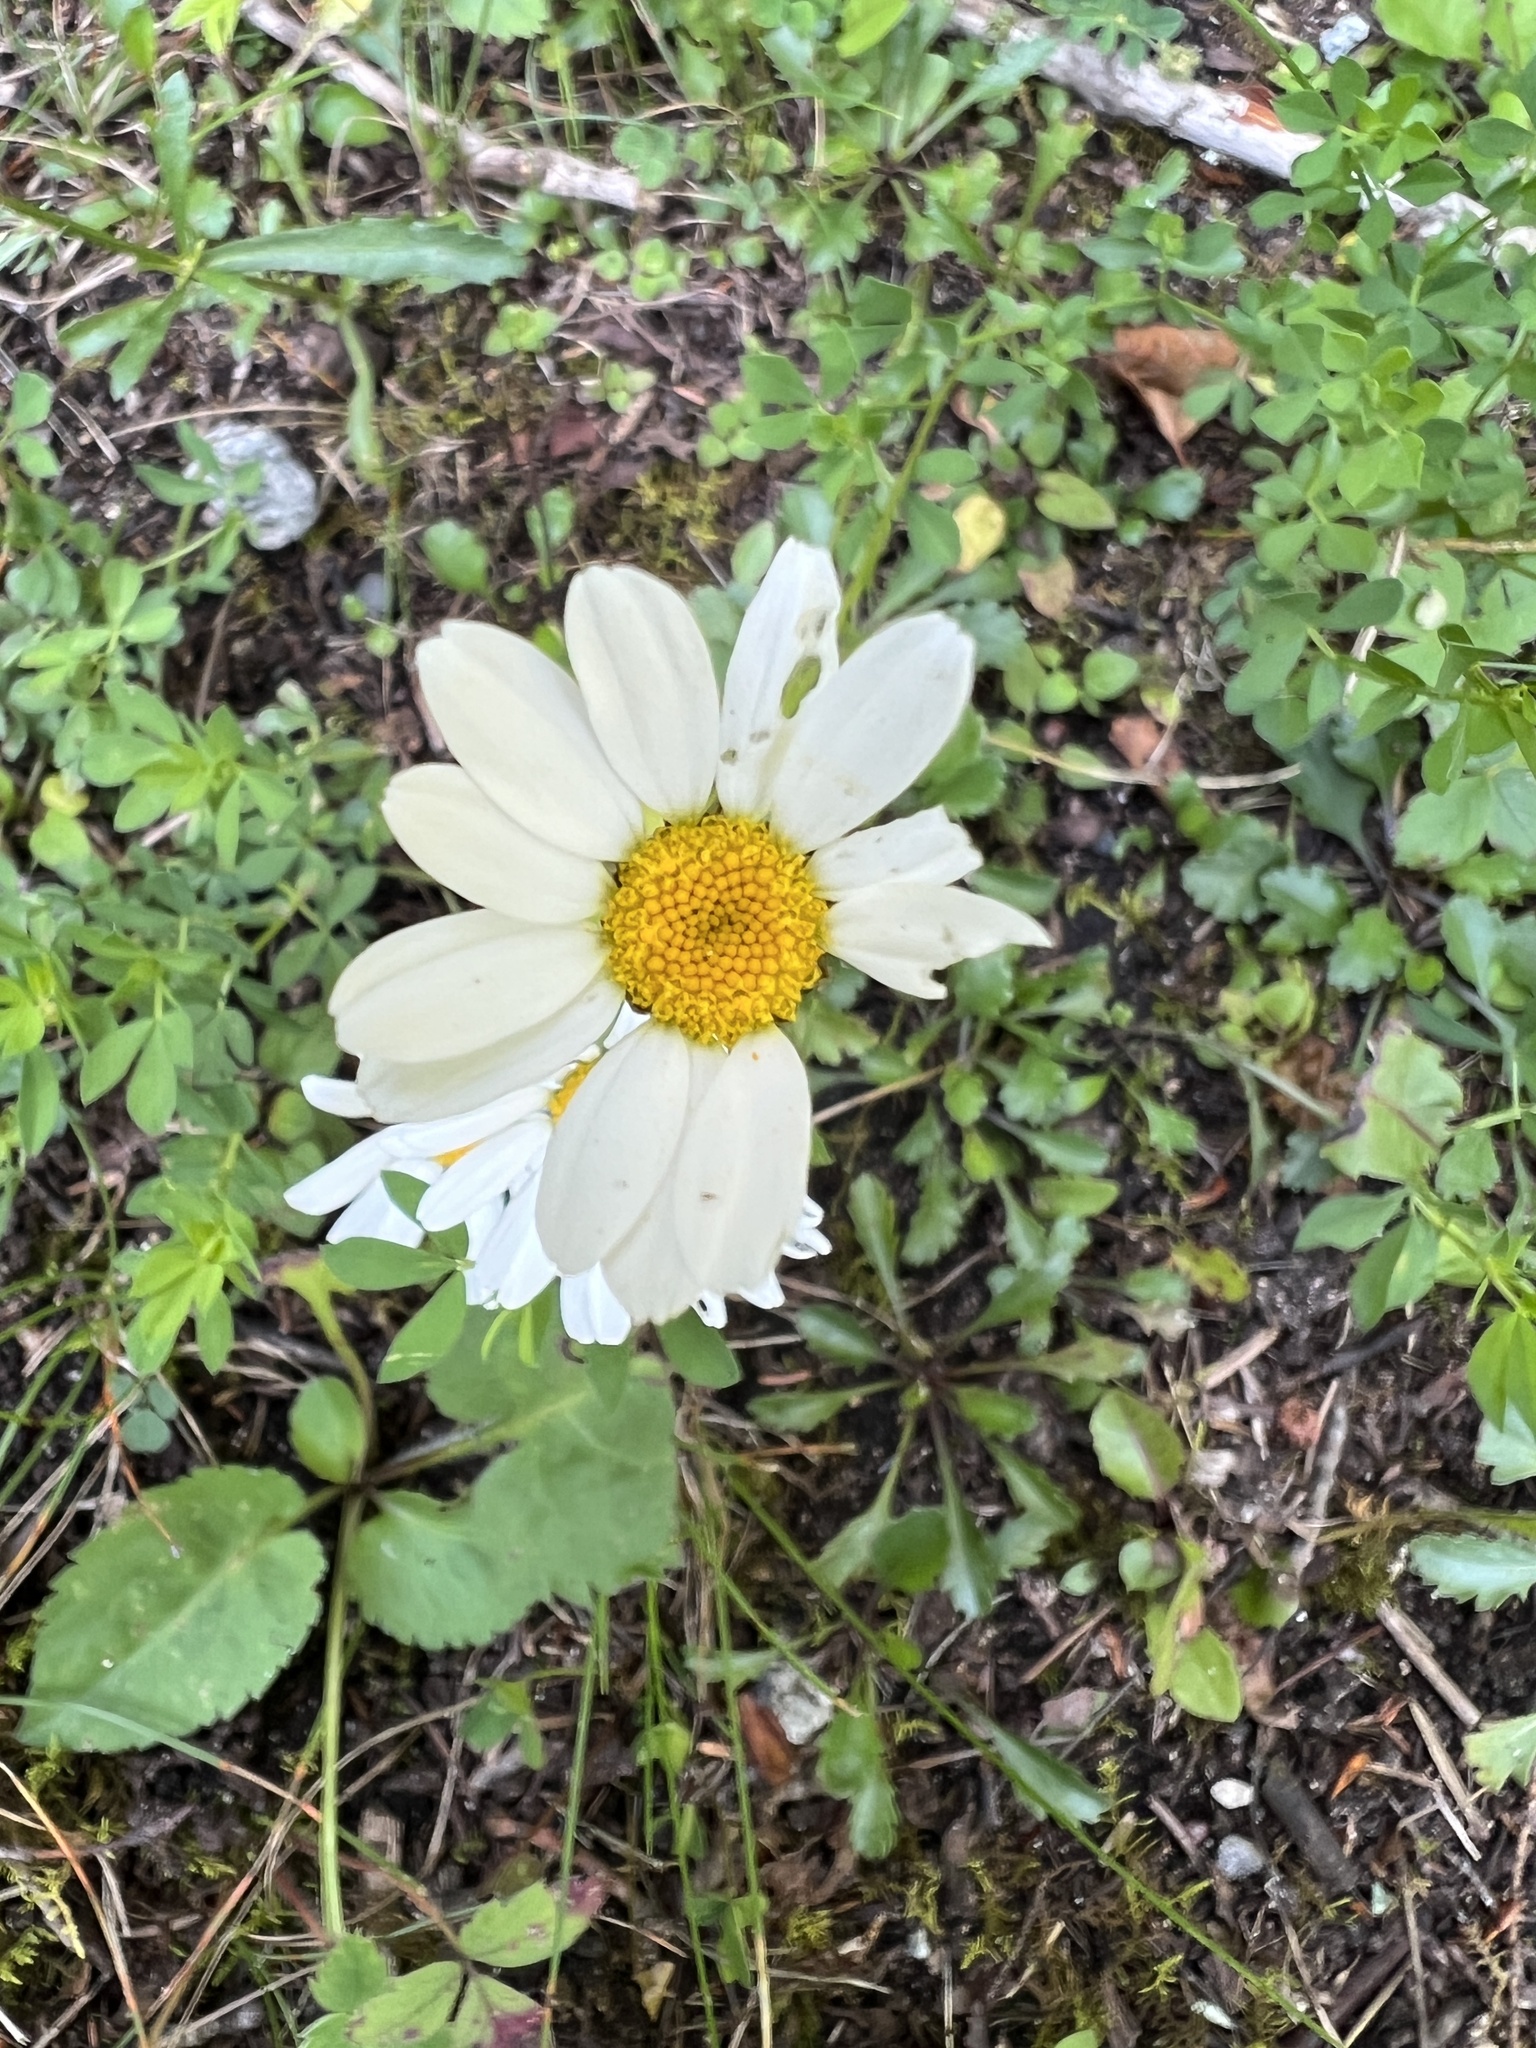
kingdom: Plantae
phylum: Tracheophyta
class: Magnoliopsida
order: Asterales
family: Asteraceae
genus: Leucanthemum
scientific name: Leucanthemum vulgare
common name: Oxeye daisy
